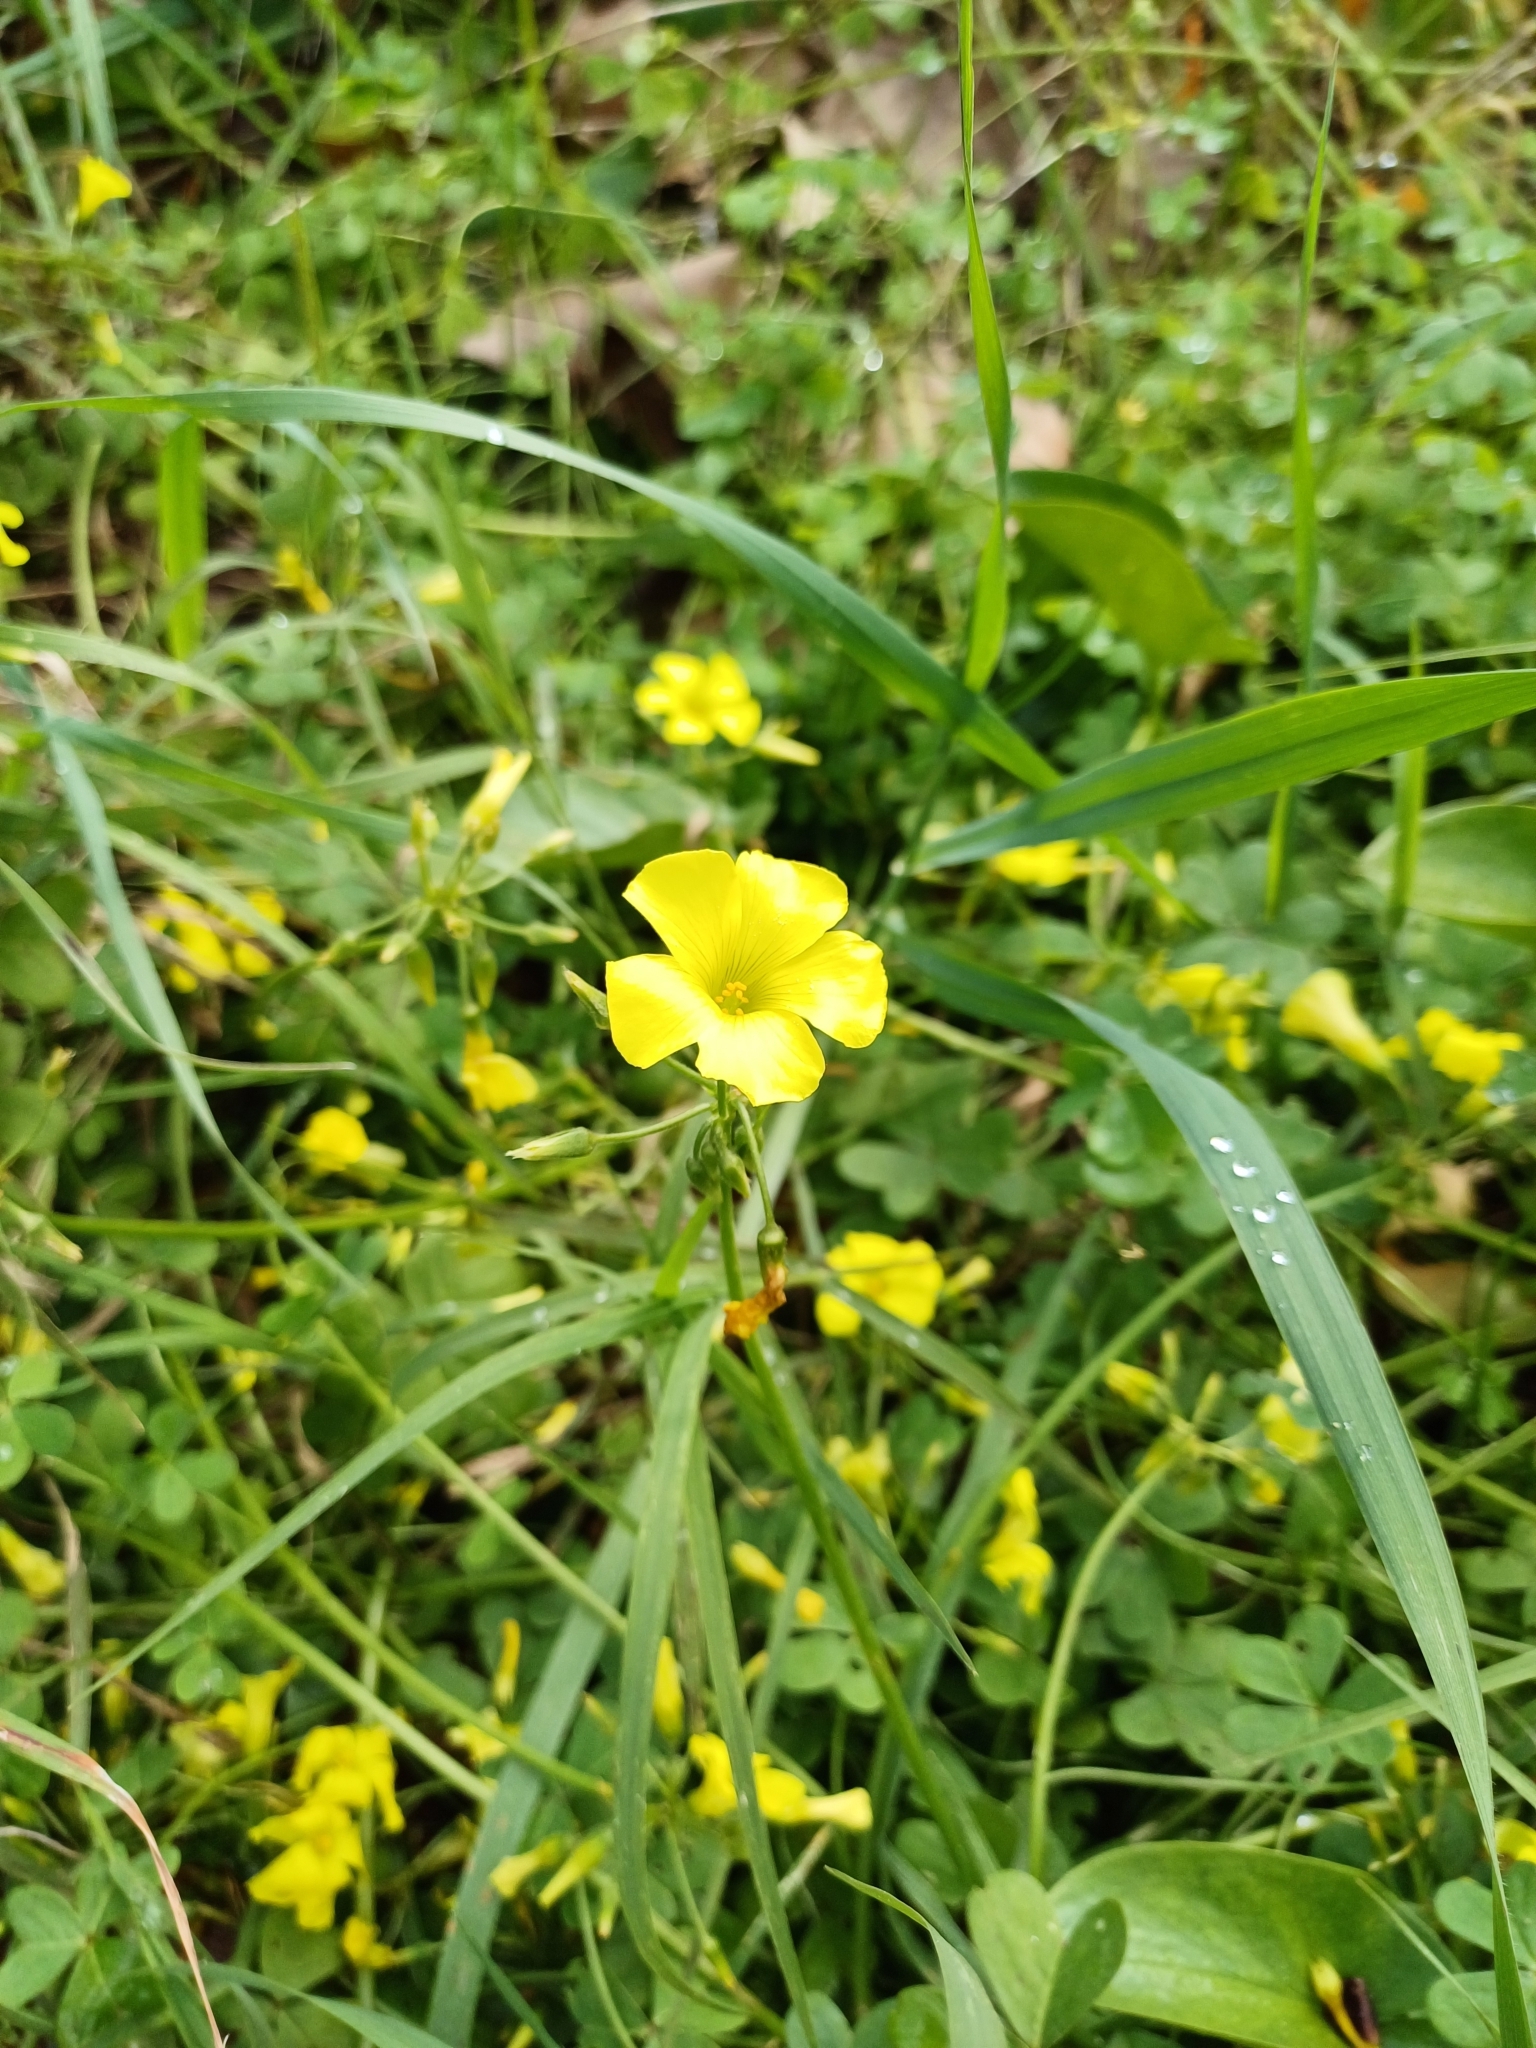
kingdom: Plantae
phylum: Tracheophyta
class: Magnoliopsida
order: Oxalidales
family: Oxalidaceae
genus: Oxalis
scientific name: Oxalis pes-caprae
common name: Bermuda-buttercup
